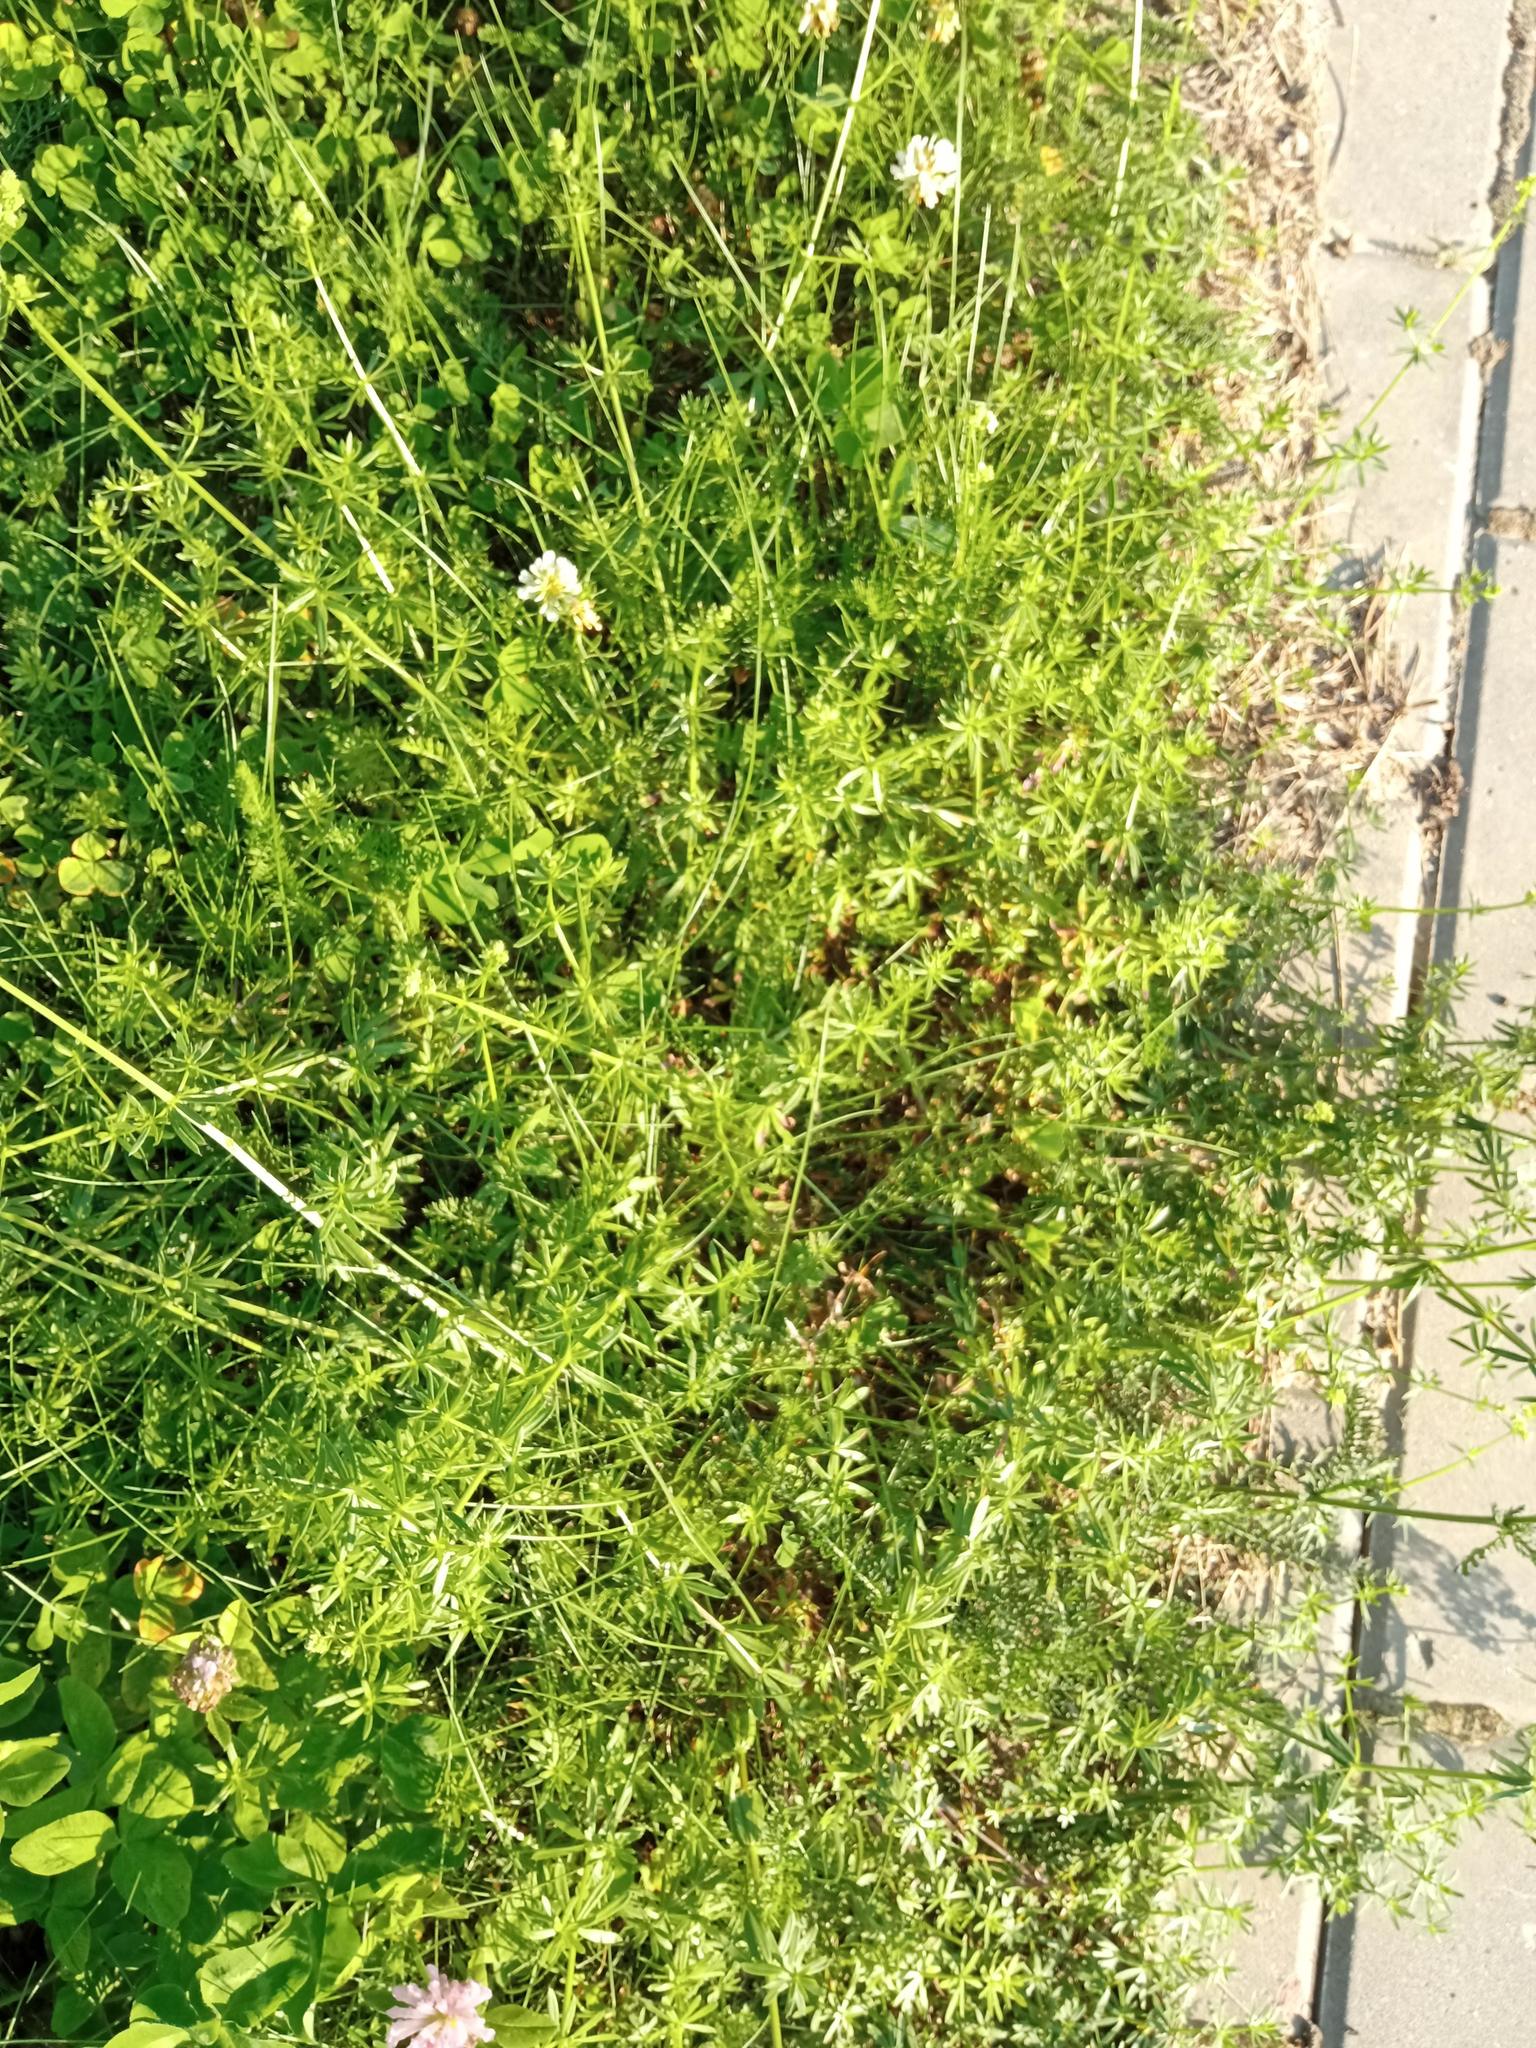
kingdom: Plantae
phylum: Tracheophyta
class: Magnoliopsida
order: Gentianales
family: Rubiaceae
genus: Galium
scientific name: Galium mollugo
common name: Hedge bedstraw
